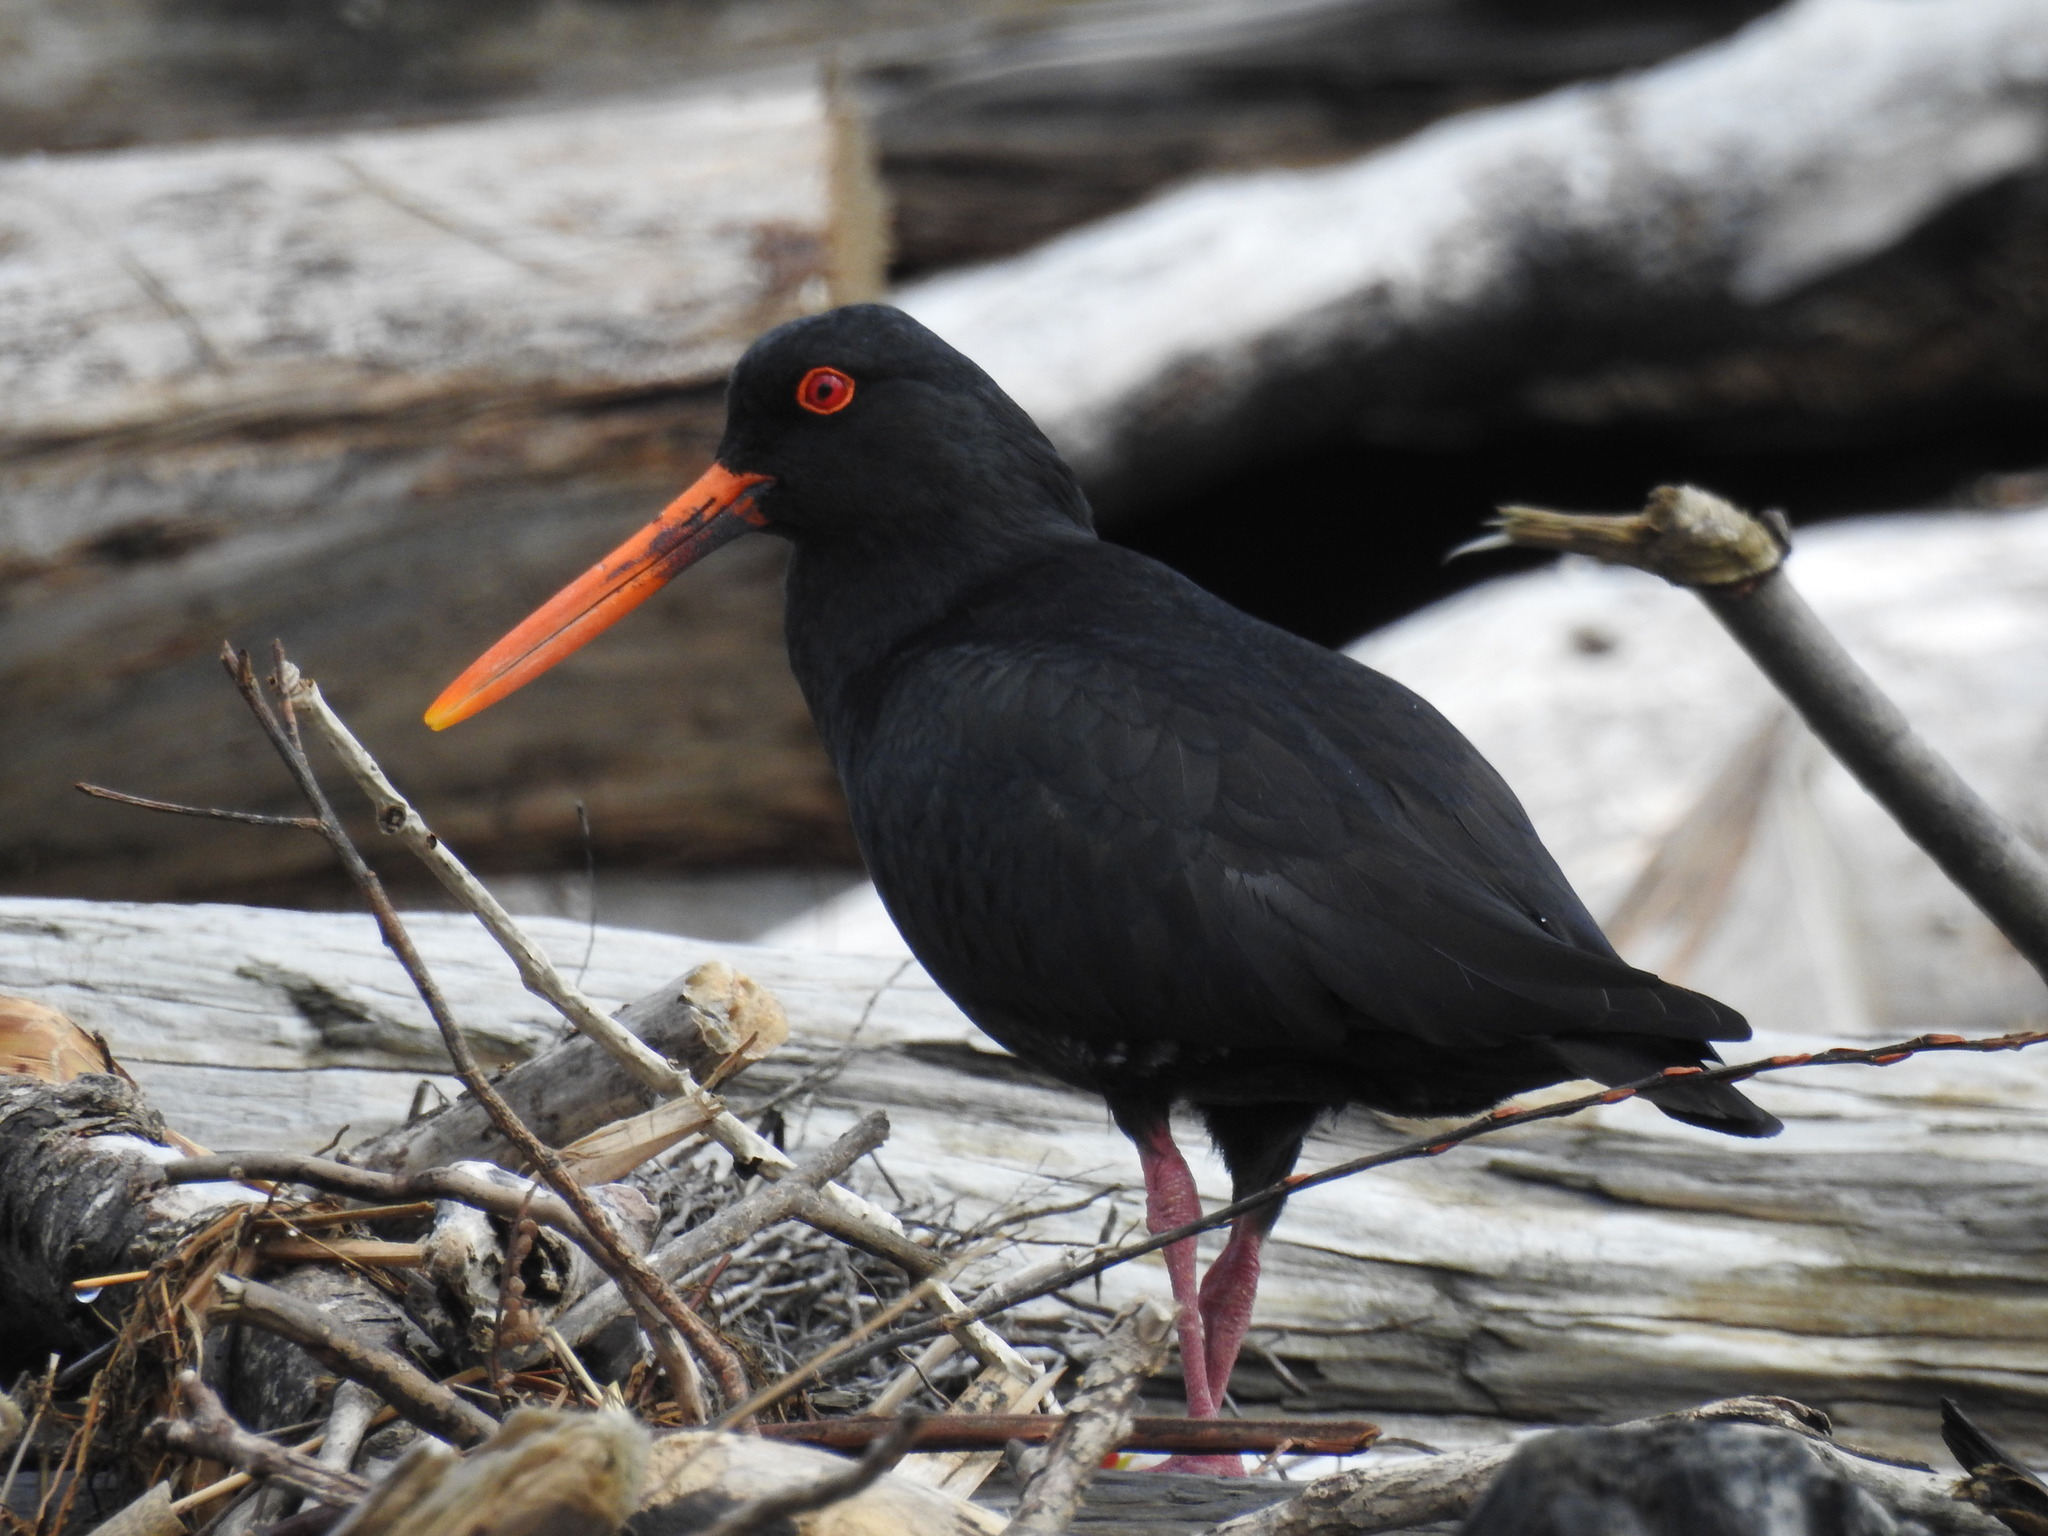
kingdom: Animalia
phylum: Chordata
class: Aves
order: Charadriiformes
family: Haematopodidae
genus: Haematopus
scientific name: Haematopus unicolor
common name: Variable oystercatcher
